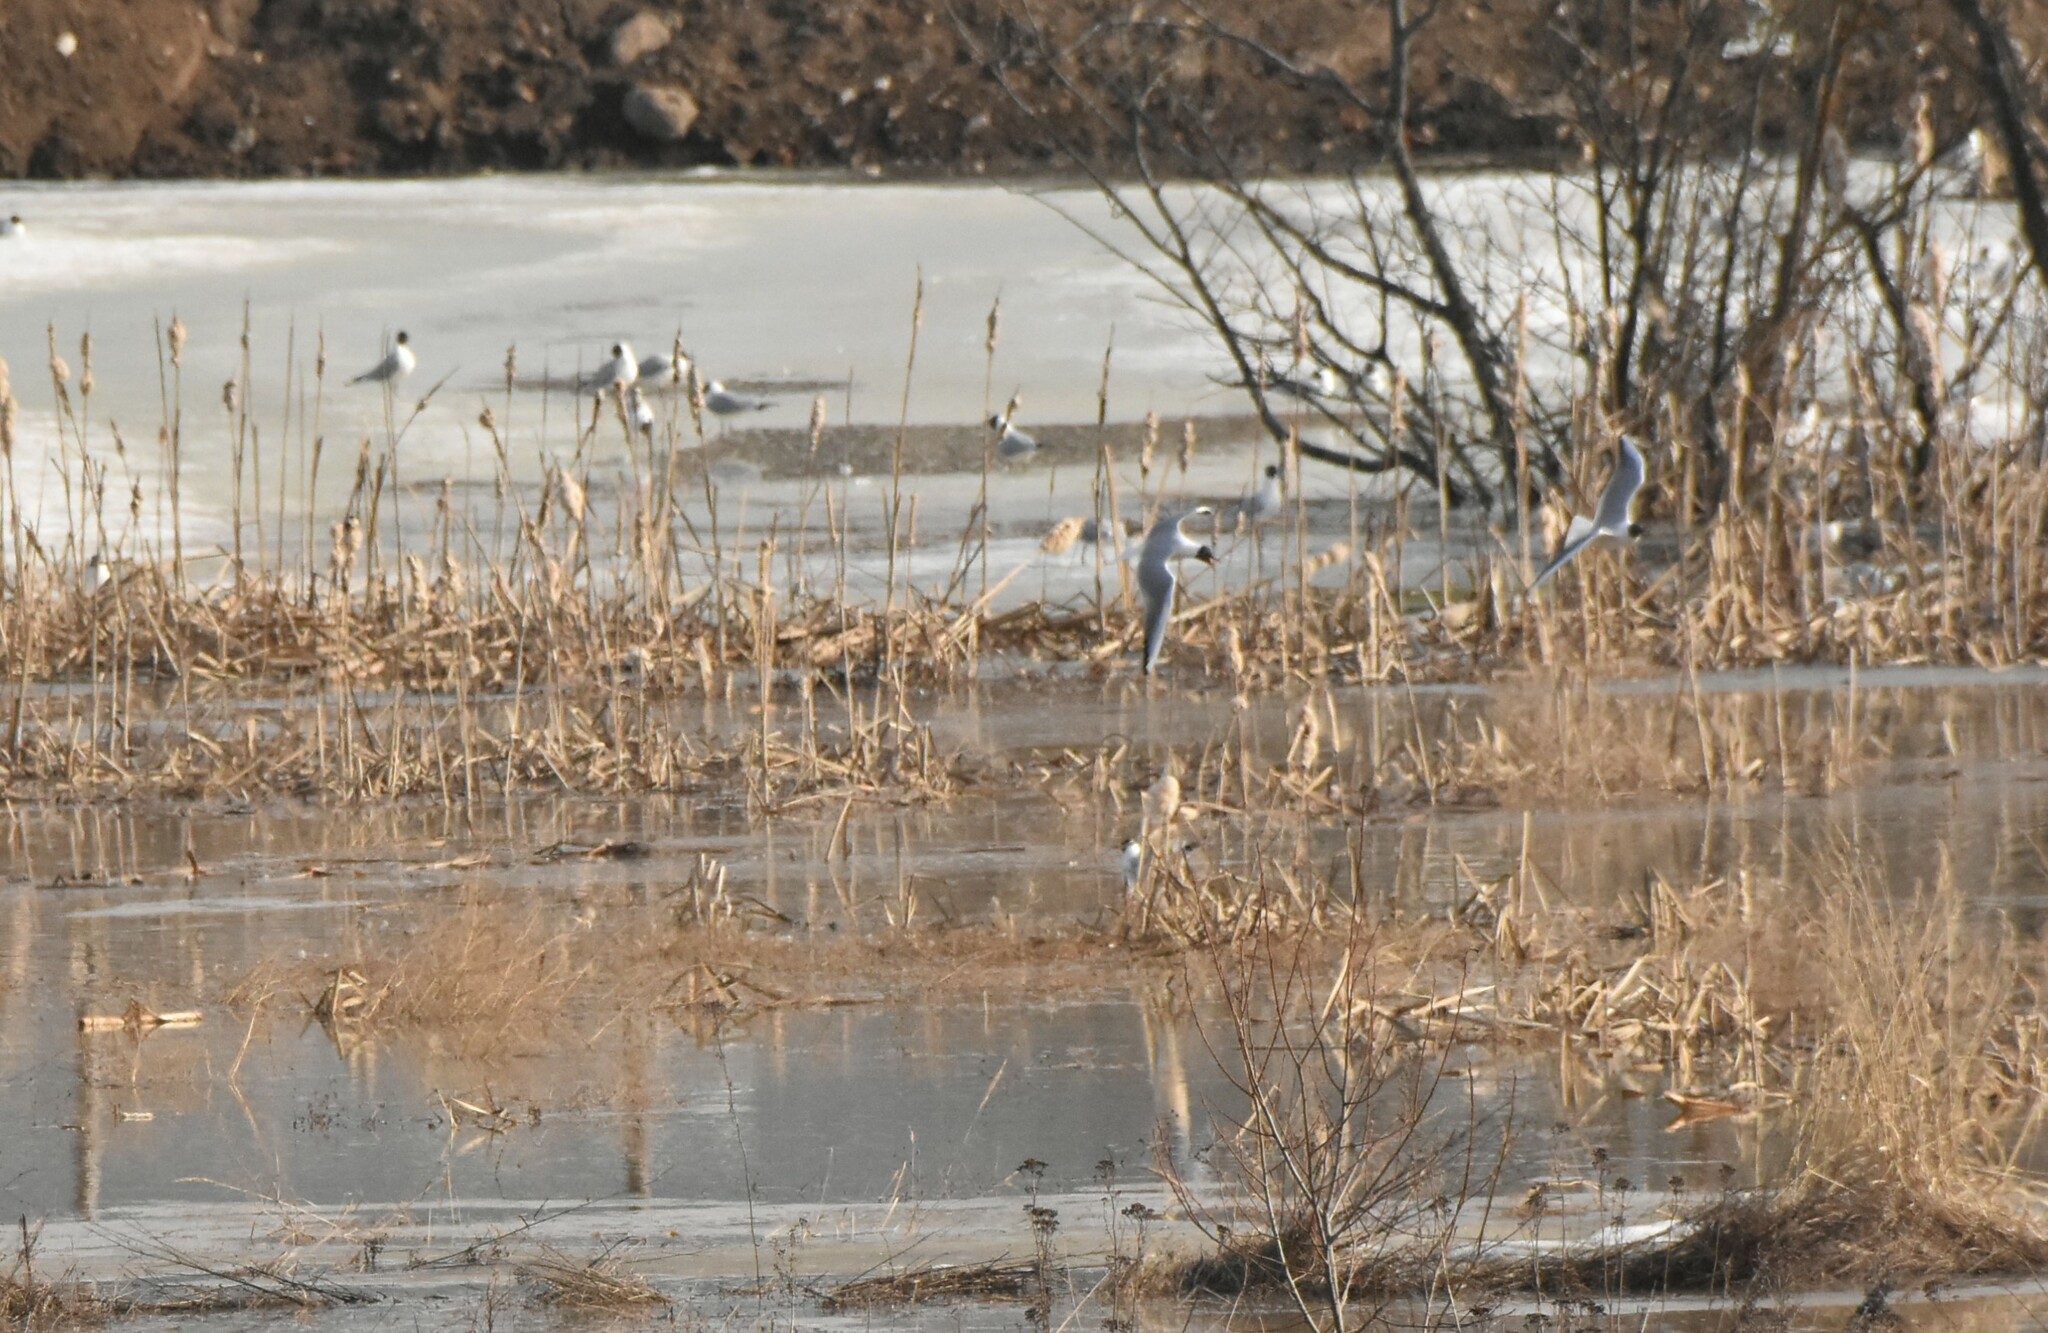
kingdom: Animalia
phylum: Chordata
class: Aves
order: Charadriiformes
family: Laridae
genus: Chroicocephalus
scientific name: Chroicocephalus ridibundus
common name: Black-headed gull
